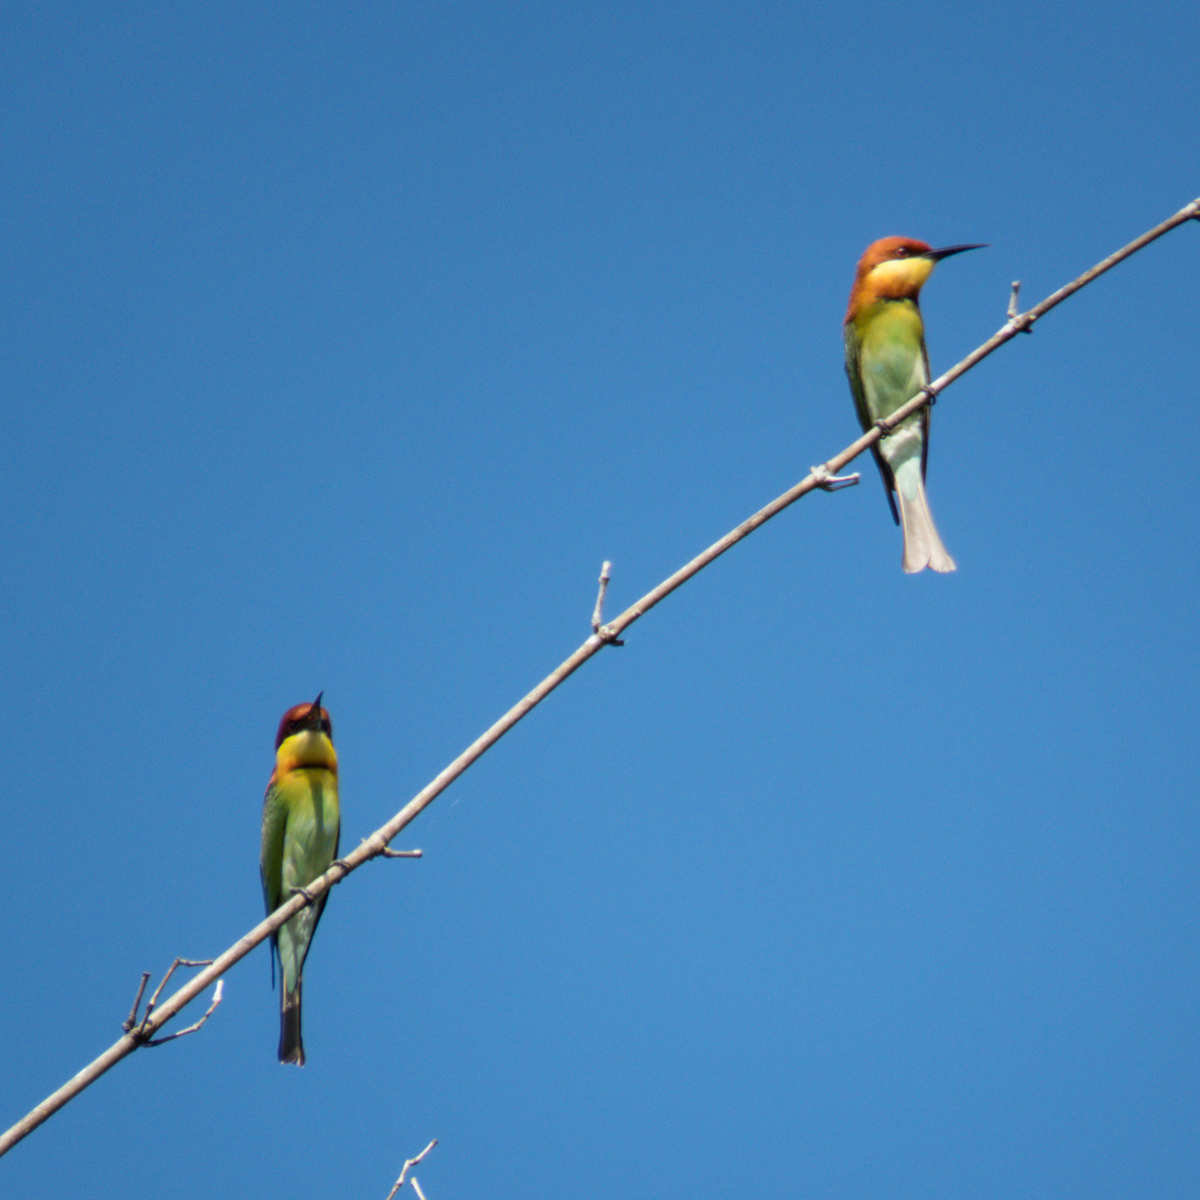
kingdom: Animalia
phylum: Chordata
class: Aves
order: Coraciiformes
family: Meropidae
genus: Merops
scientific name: Merops leschenaulti
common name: Chestnut-headed bee-eater
